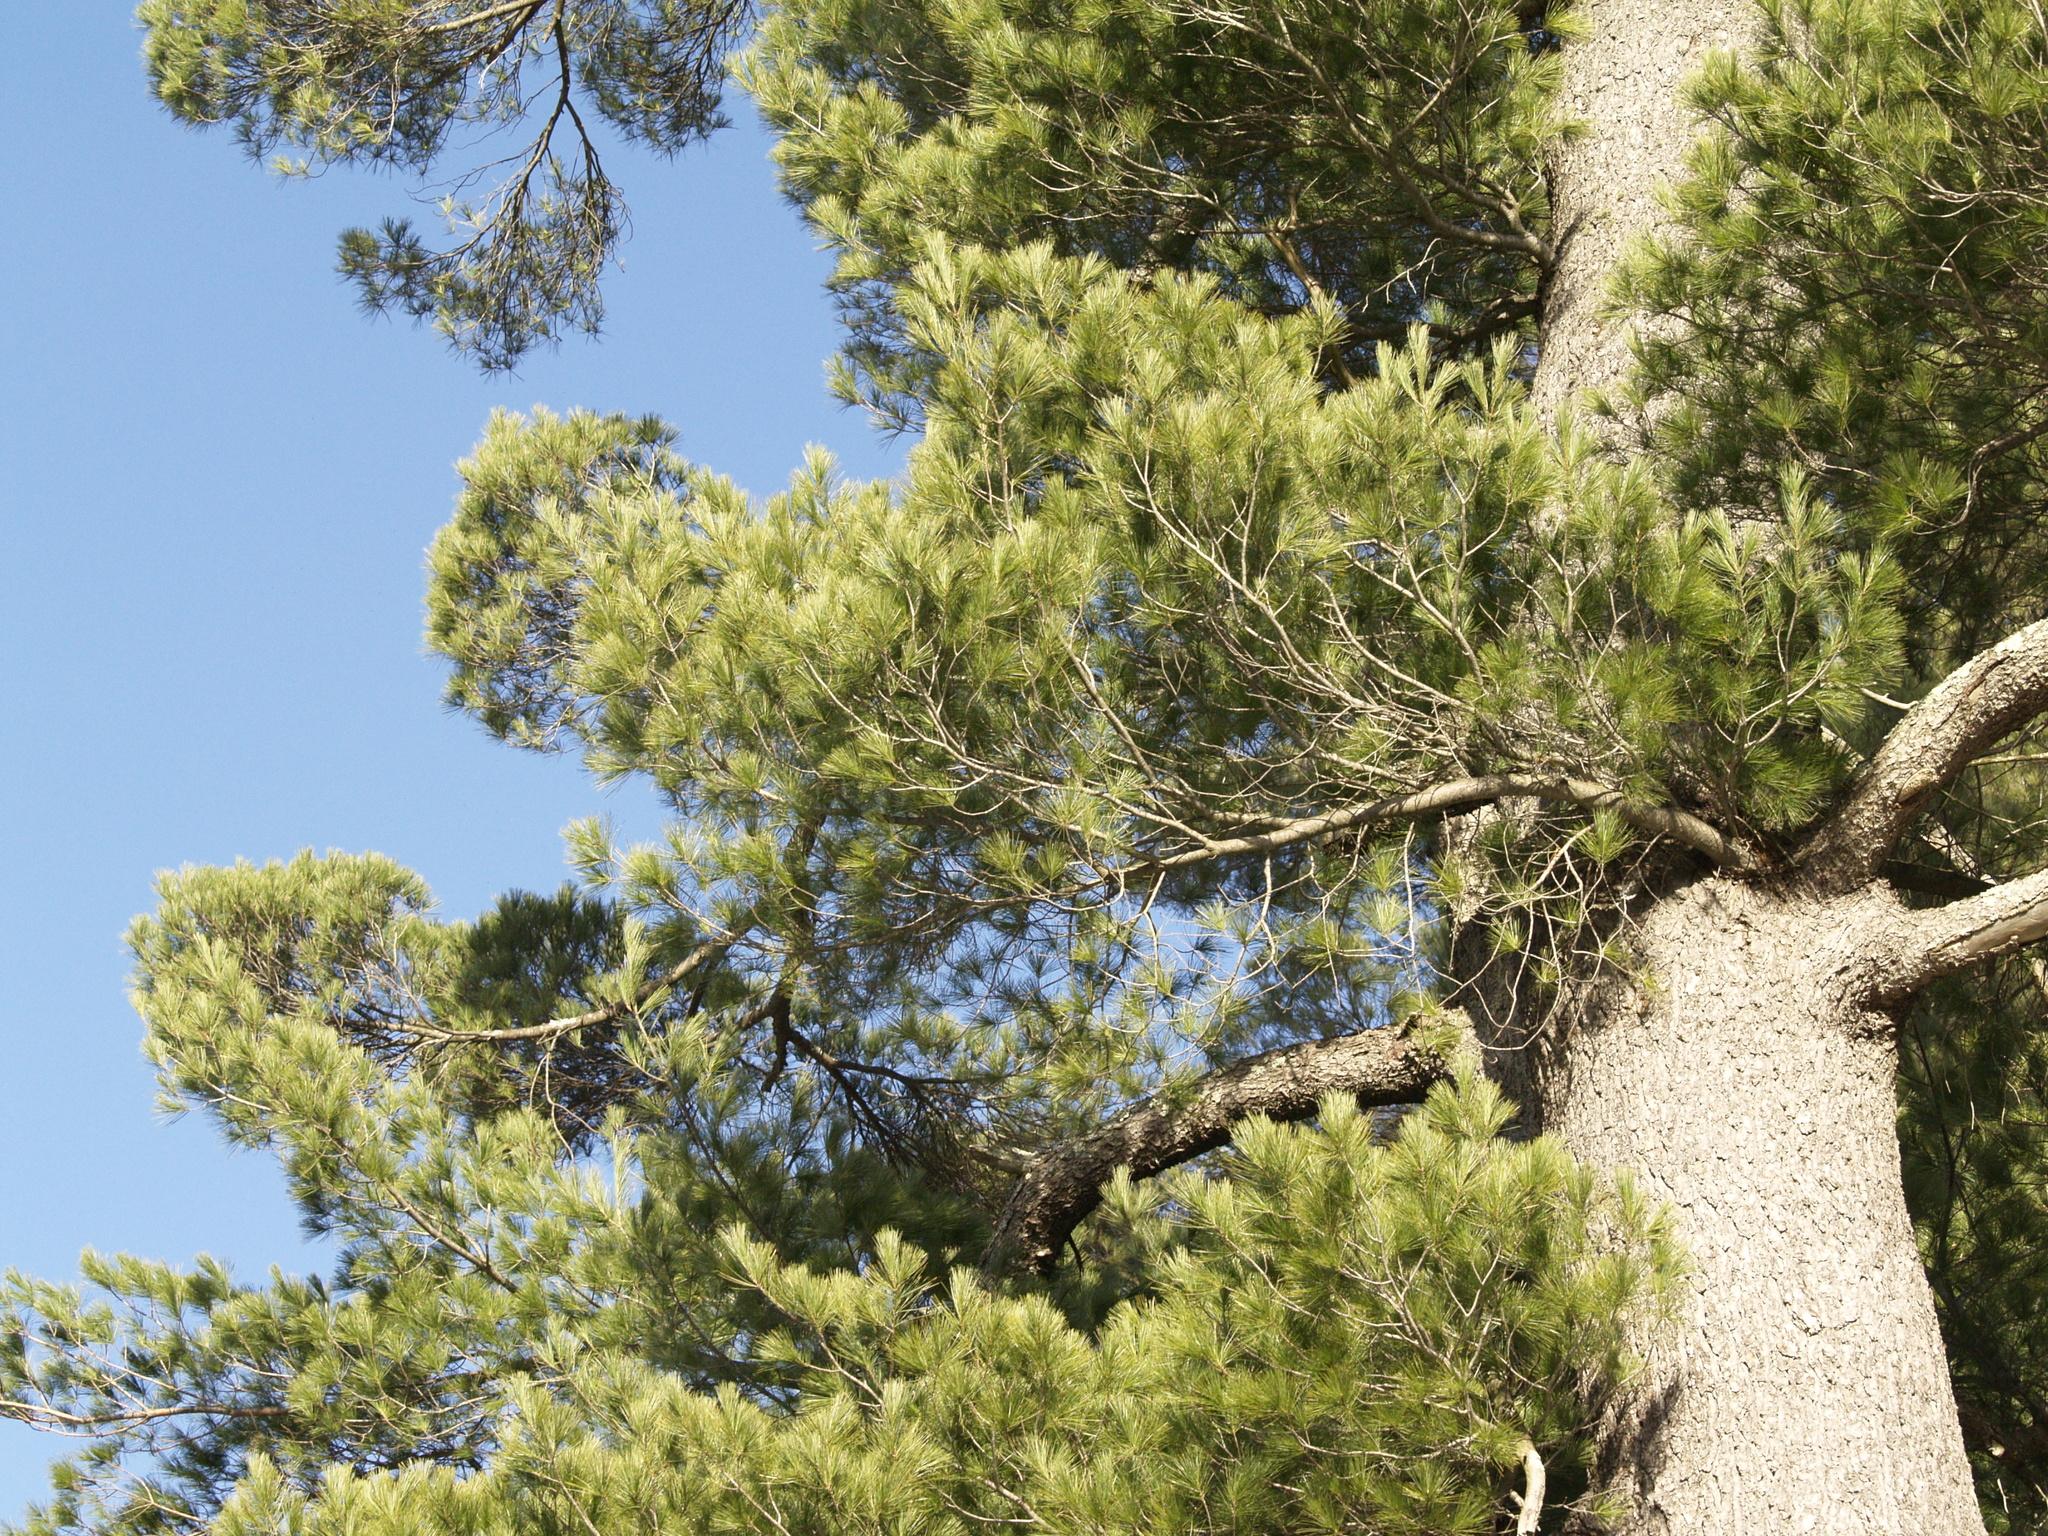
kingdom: Plantae
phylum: Tracheophyta
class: Pinopsida
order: Pinales
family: Pinaceae
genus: Pinus
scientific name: Pinus strobus
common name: Weymouth pine
